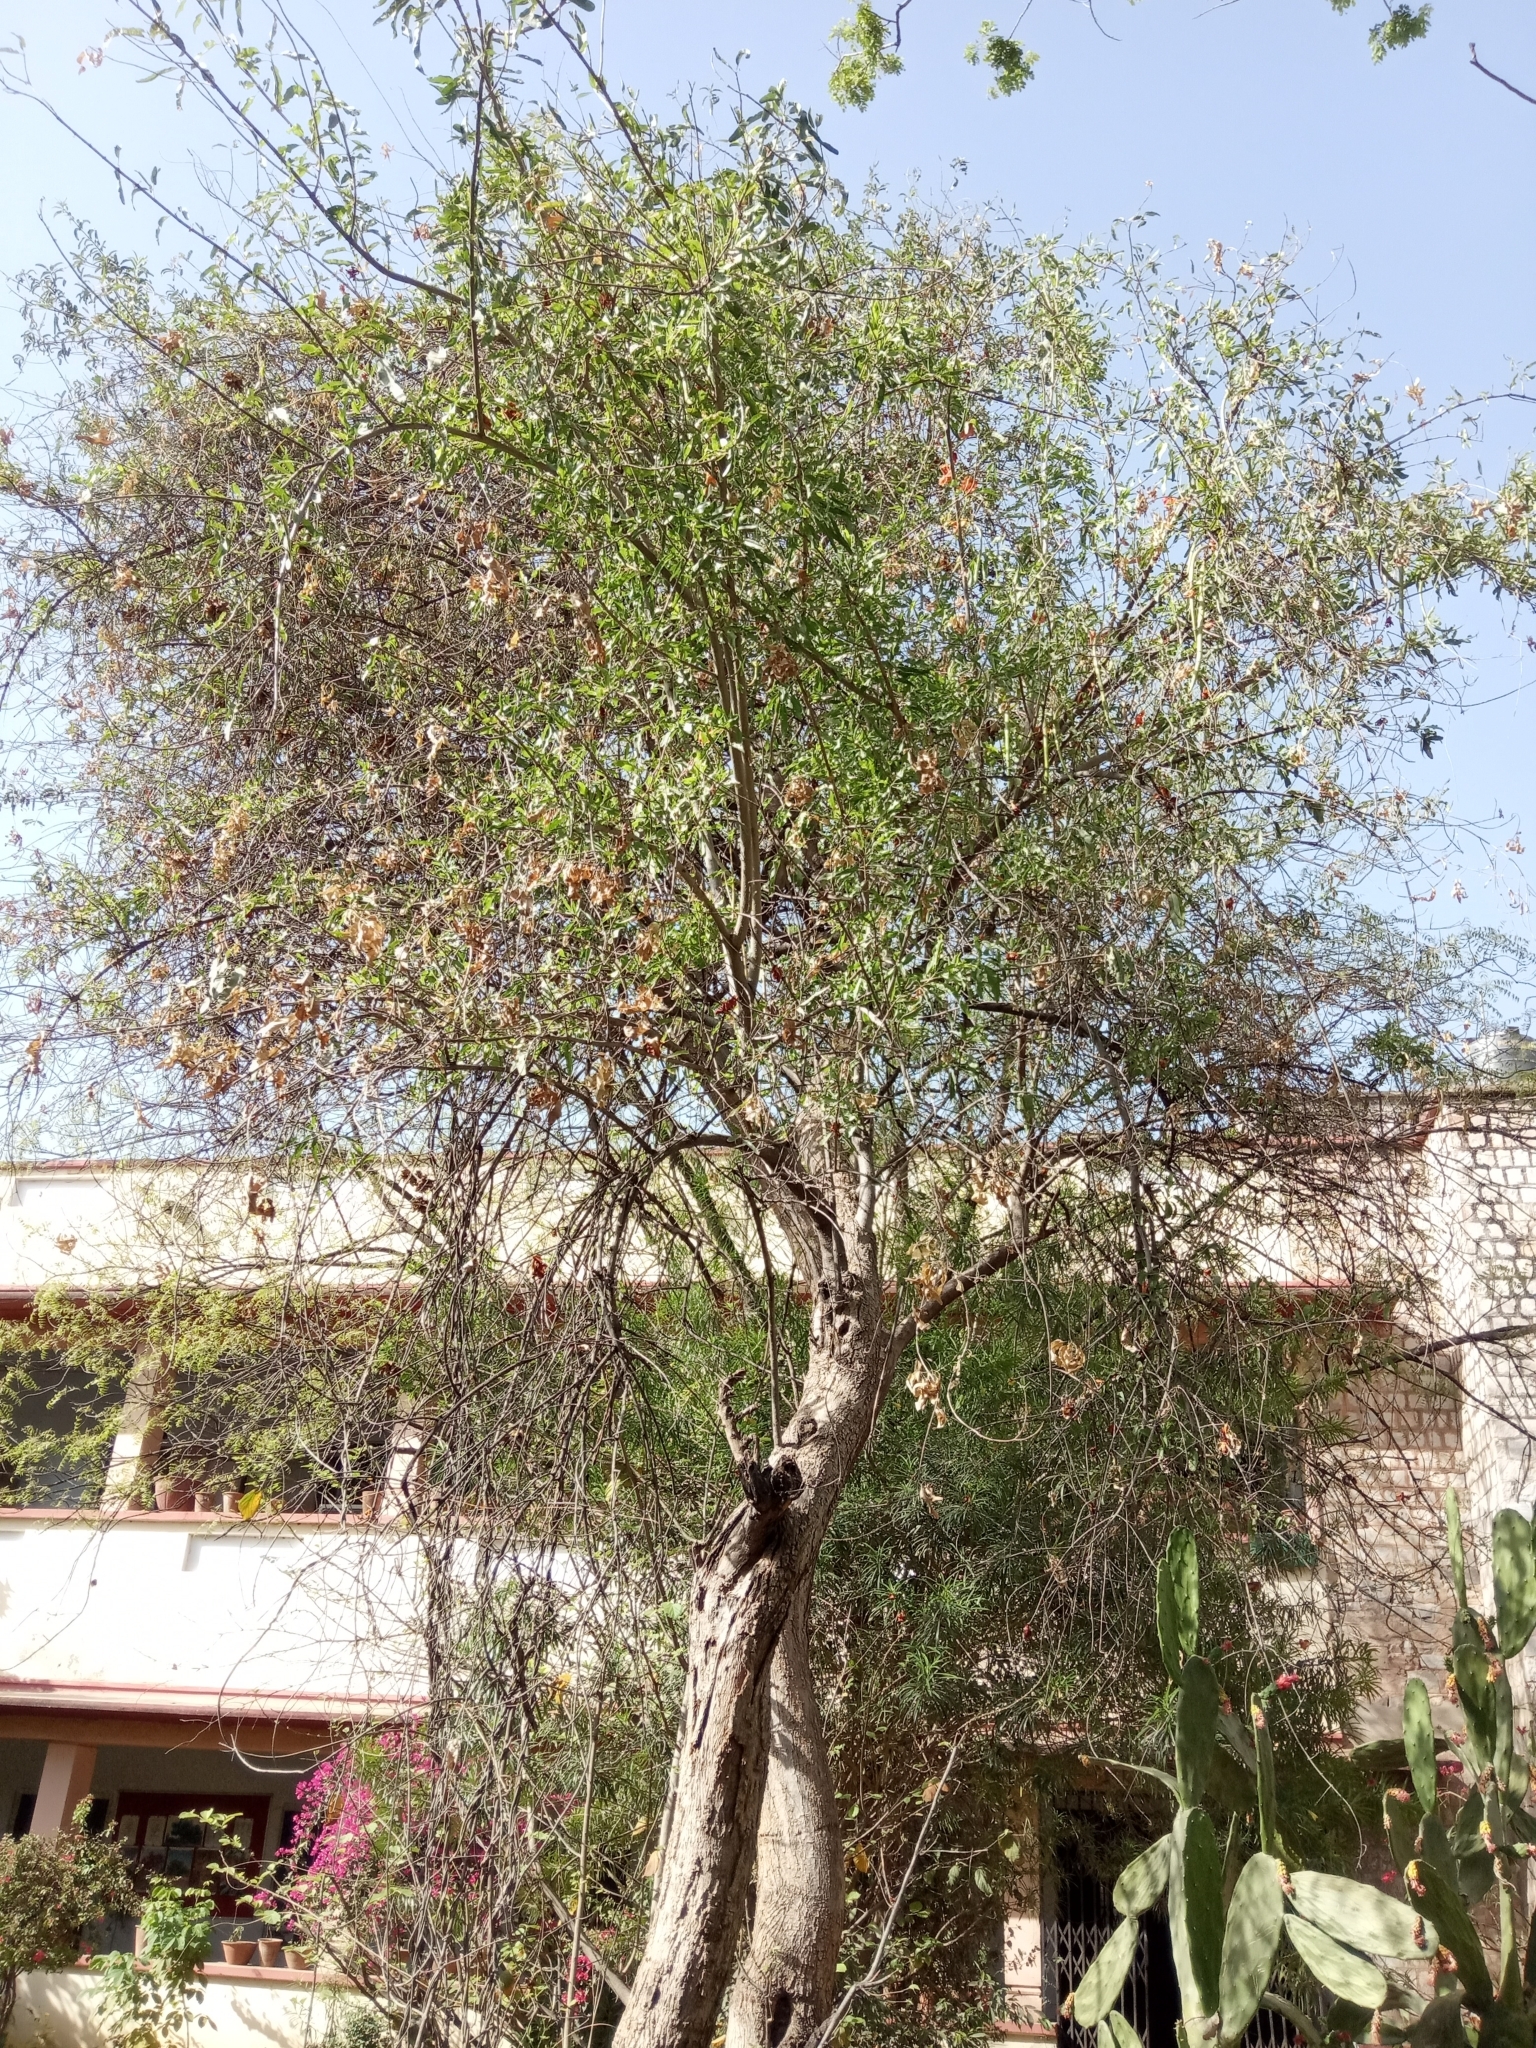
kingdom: Plantae
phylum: Tracheophyta
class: Magnoliopsida
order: Lamiales
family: Bignoniaceae
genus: Tecomella
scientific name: Tecomella undulata
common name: Desert teak
